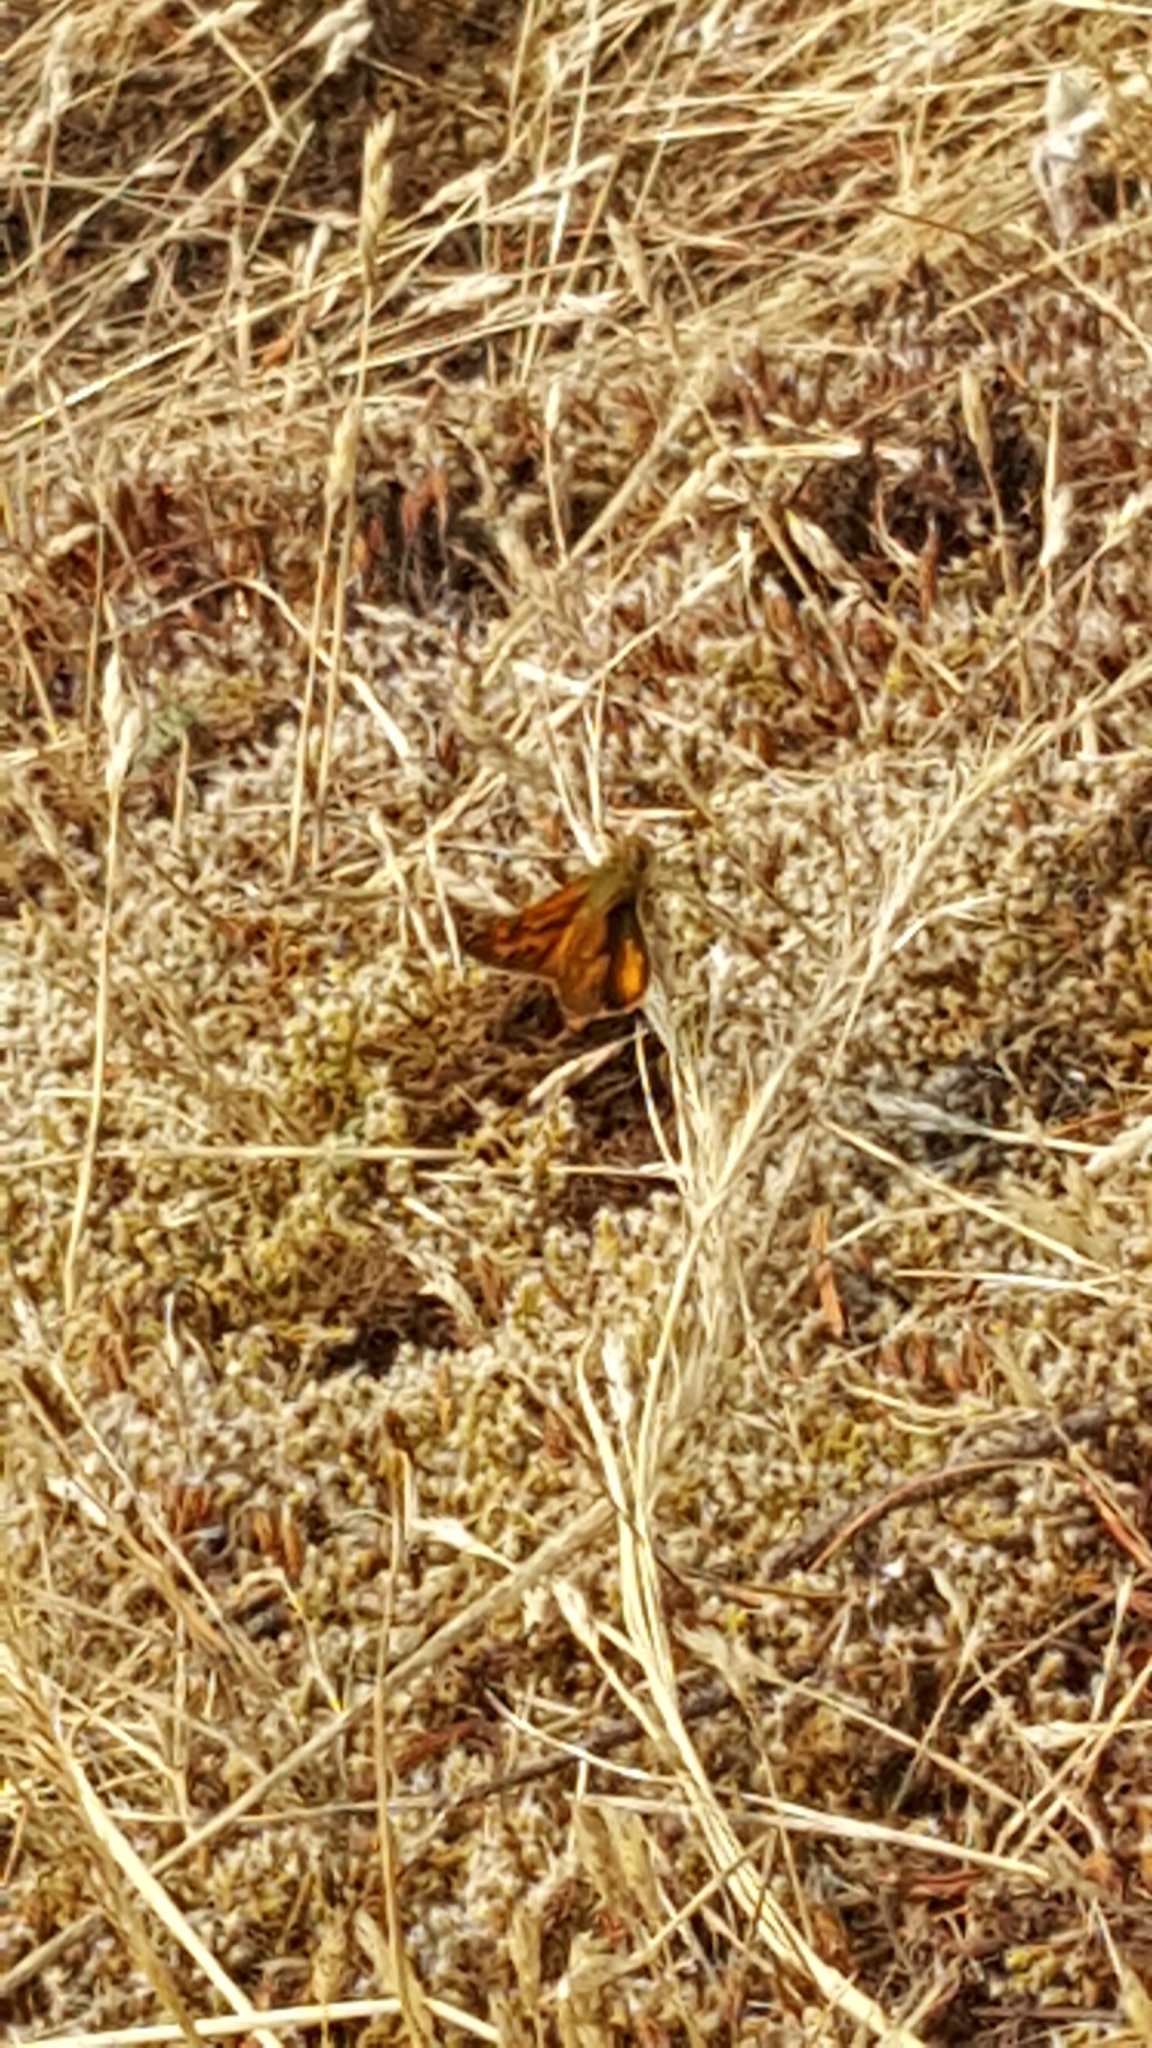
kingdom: Animalia
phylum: Arthropoda
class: Insecta
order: Lepidoptera
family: Hesperiidae
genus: Ochlodes
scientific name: Ochlodes sylvanoides
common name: Woodland skipper
